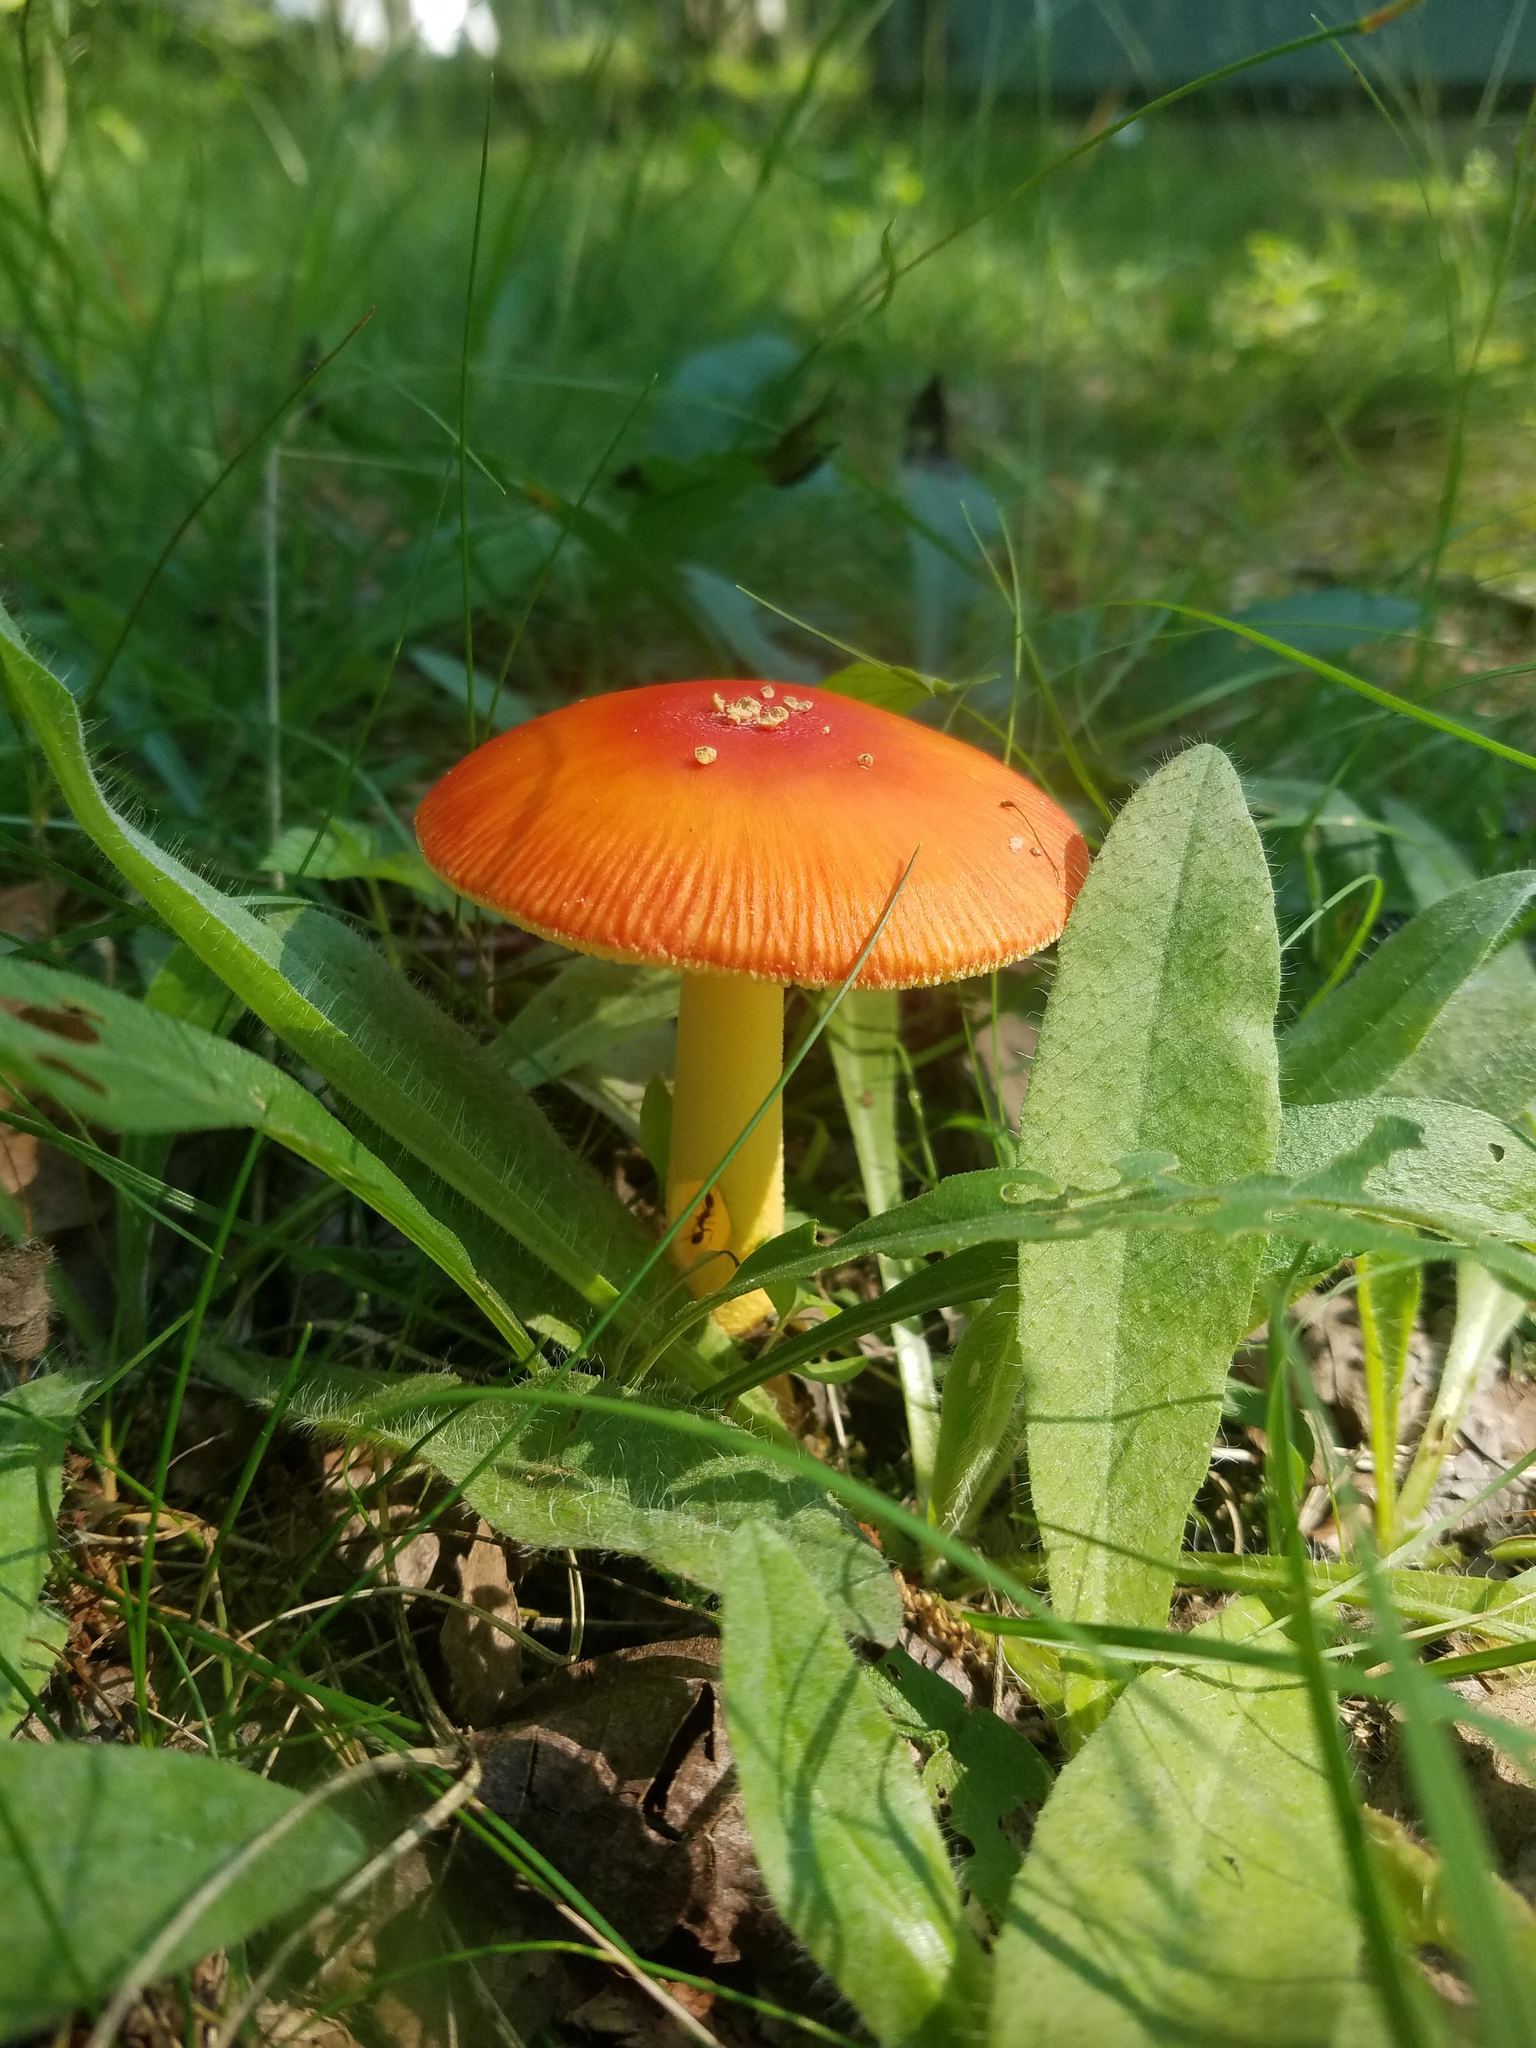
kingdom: Fungi
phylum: Basidiomycota
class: Agaricomycetes
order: Agaricales
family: Amanitaceae
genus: Amanita
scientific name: Amanita parcivolvata
